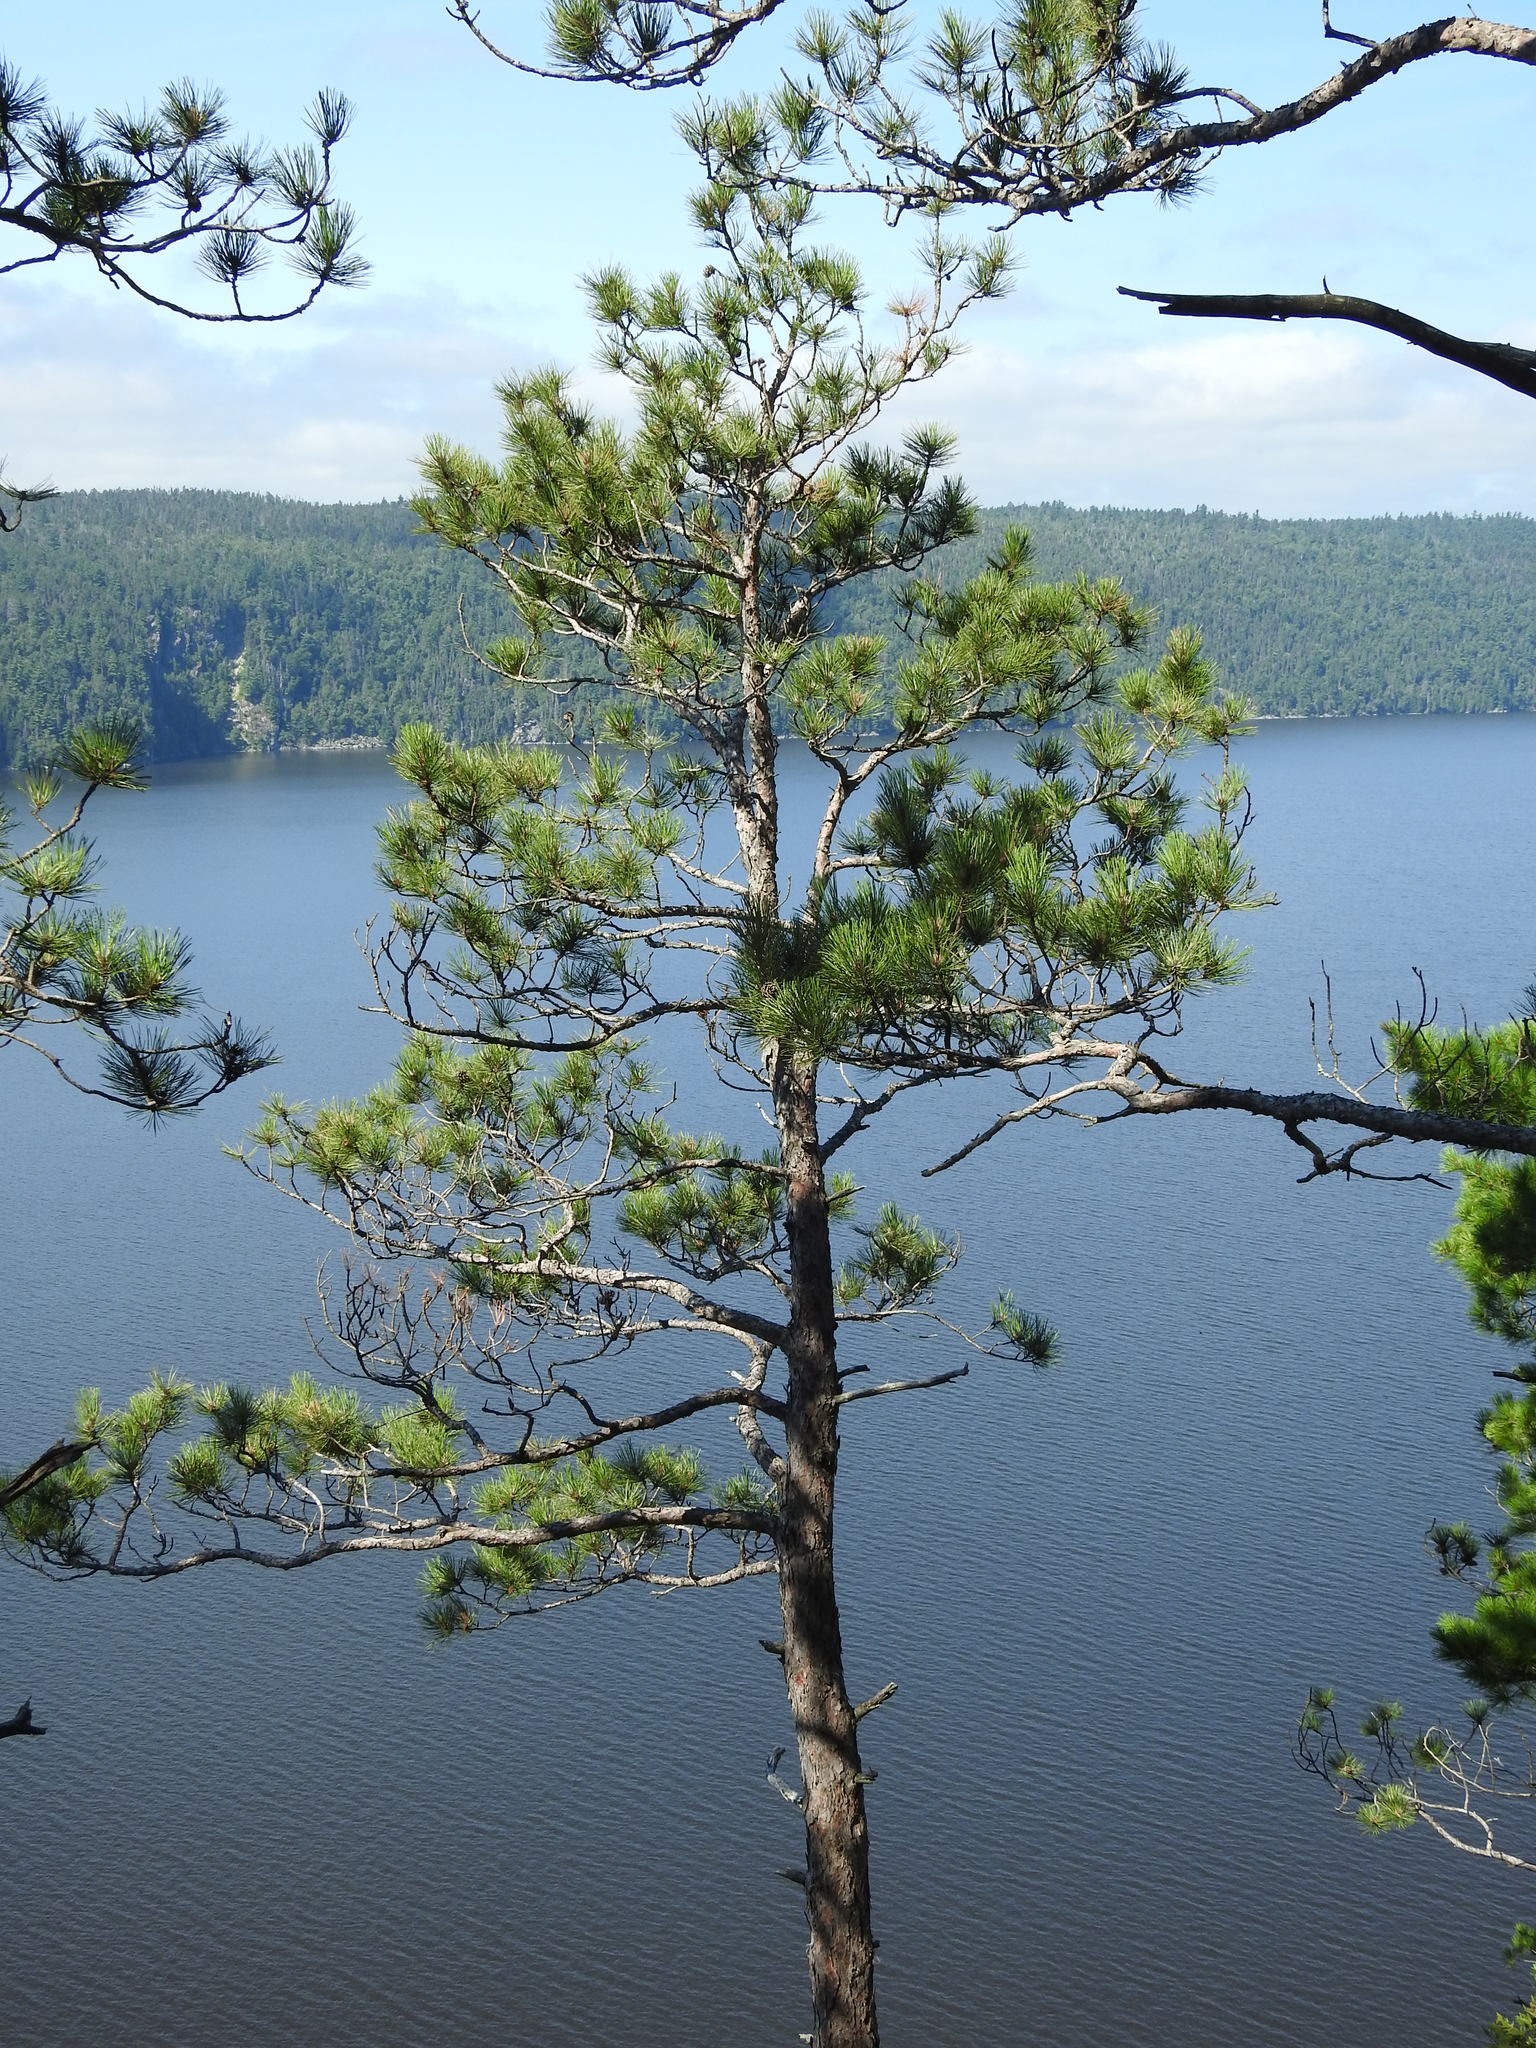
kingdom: Plantae
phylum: Tracheophyta
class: Pinopsida
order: Pinales
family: Pinaceae
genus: Pinus
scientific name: Pinus resinosa
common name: Norway pine
